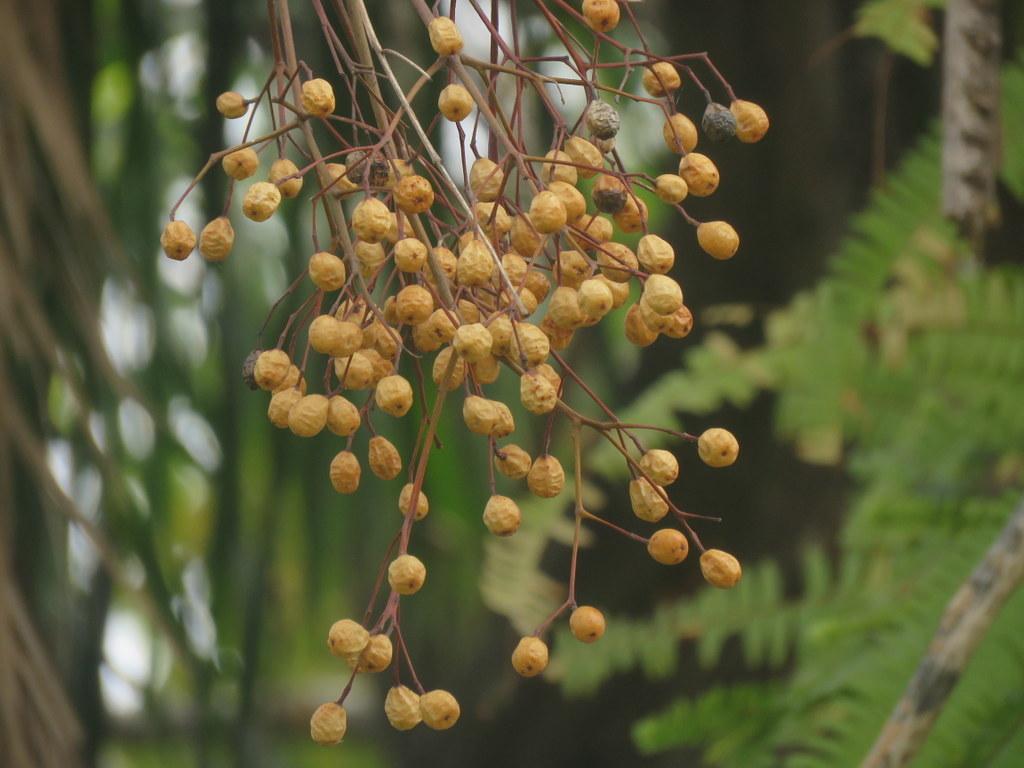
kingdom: Plantae
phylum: Tracheophyta
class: Magnoliopsida
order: Sapindales
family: Meliaceae
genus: Melia
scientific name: Melia azedarach
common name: Chinaberrytree
